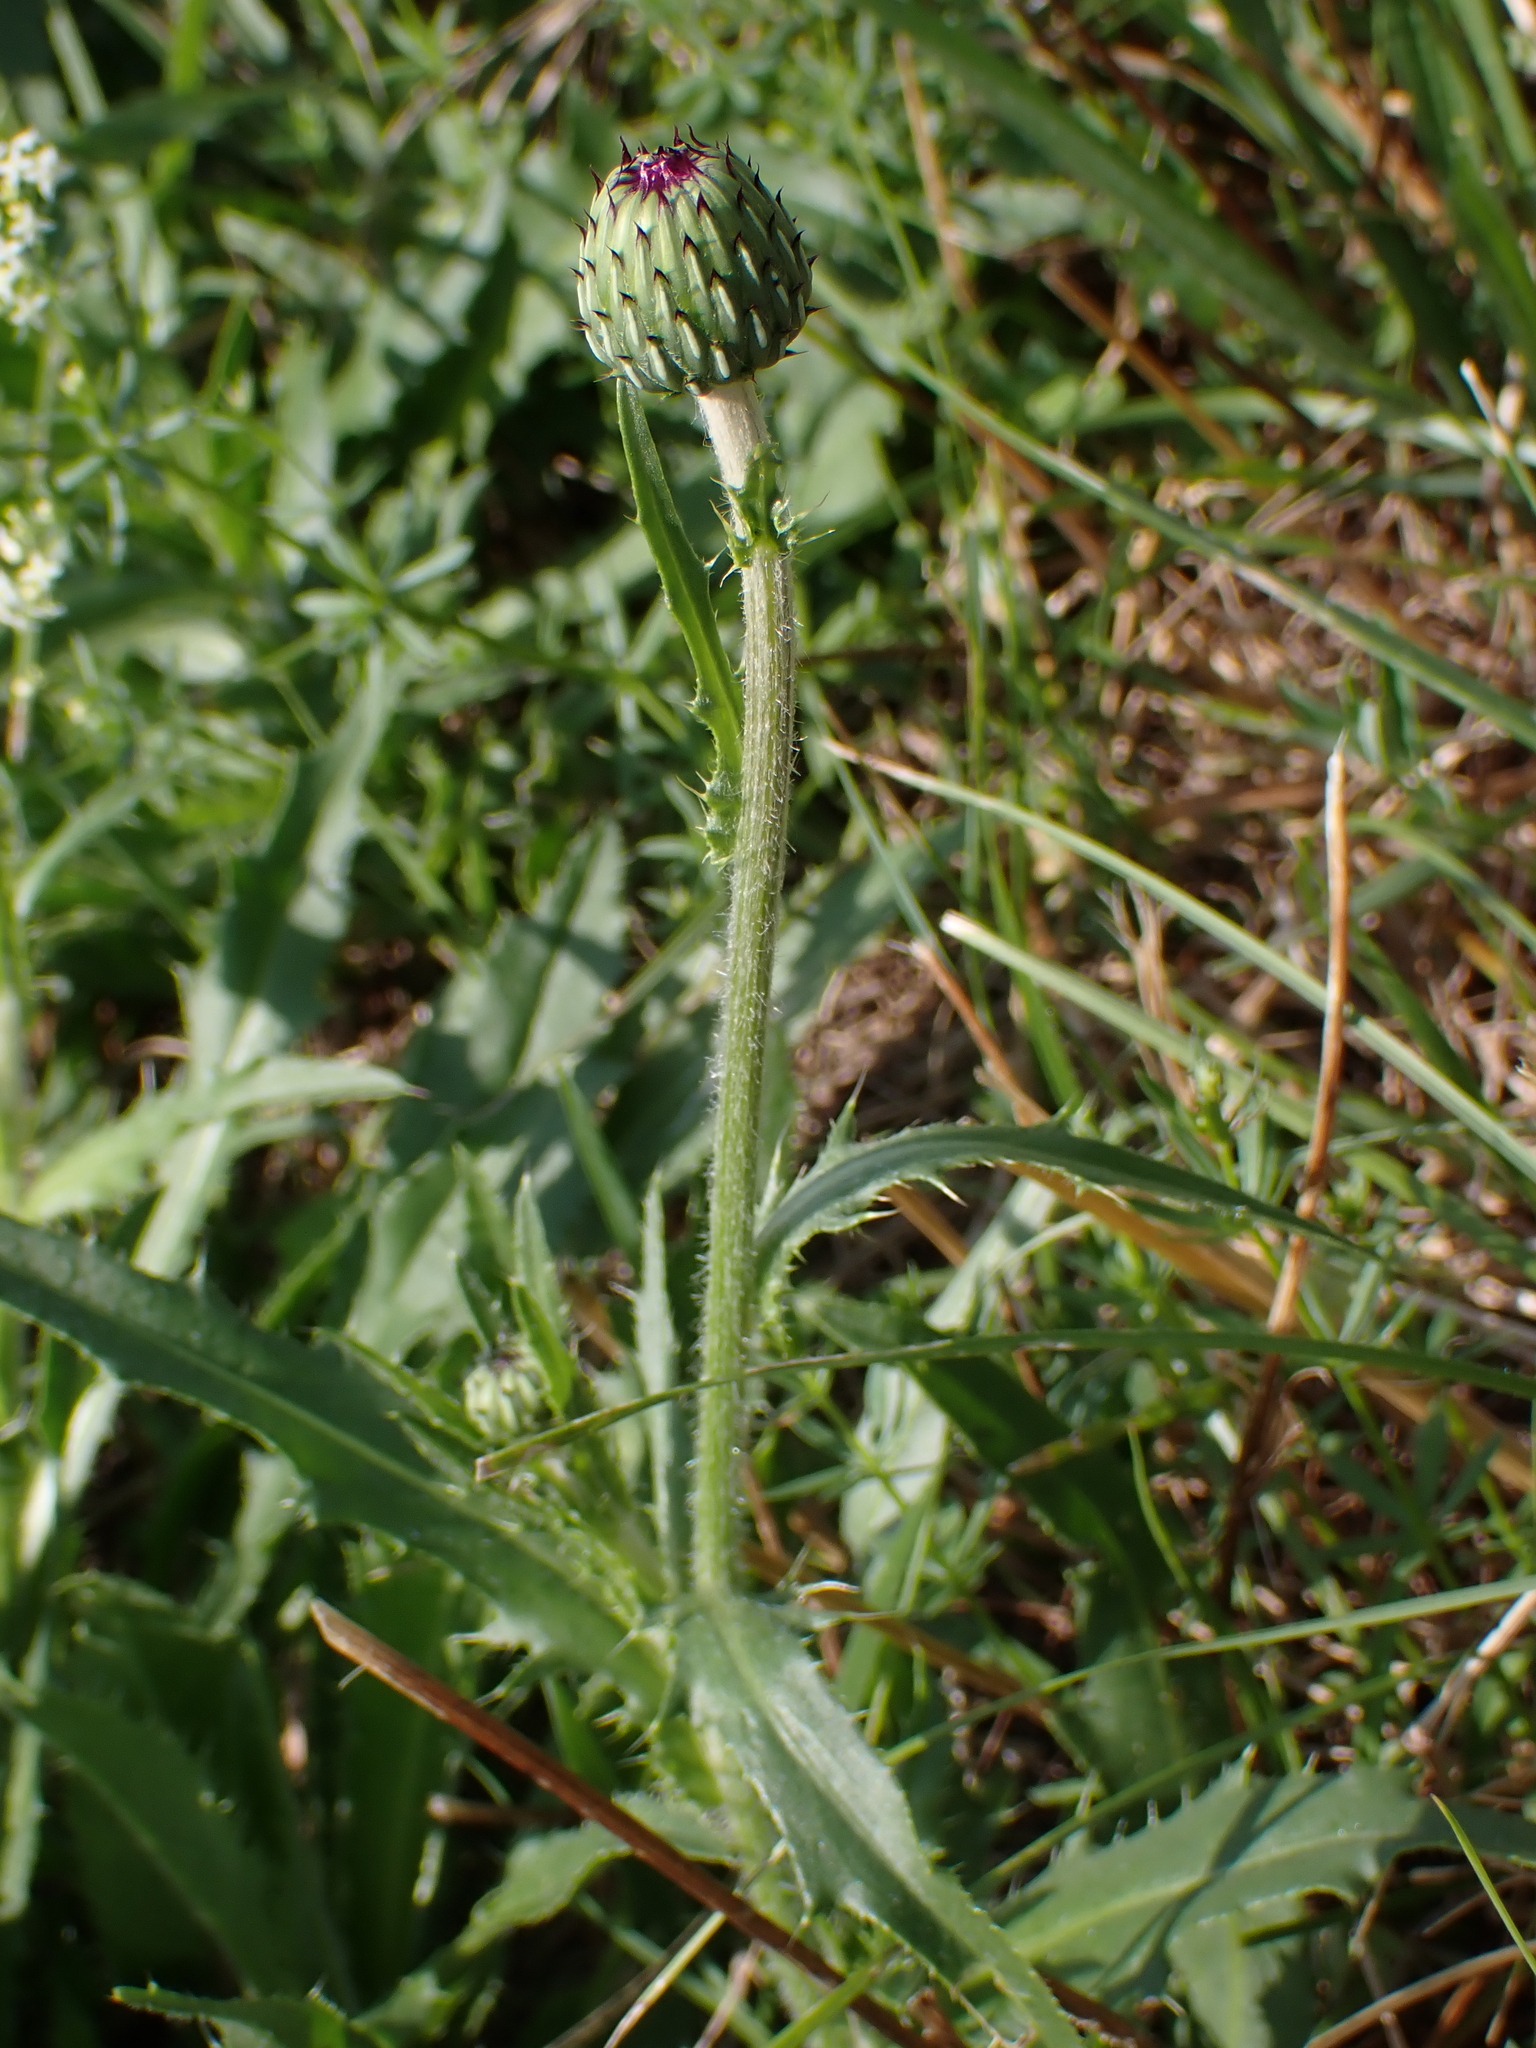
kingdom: Plantae
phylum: Tracheophyta
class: Magnoliopsida
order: Asterales
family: Asteraceae
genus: Cirsium
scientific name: Cirsium canum
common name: Queen anne's thistle
